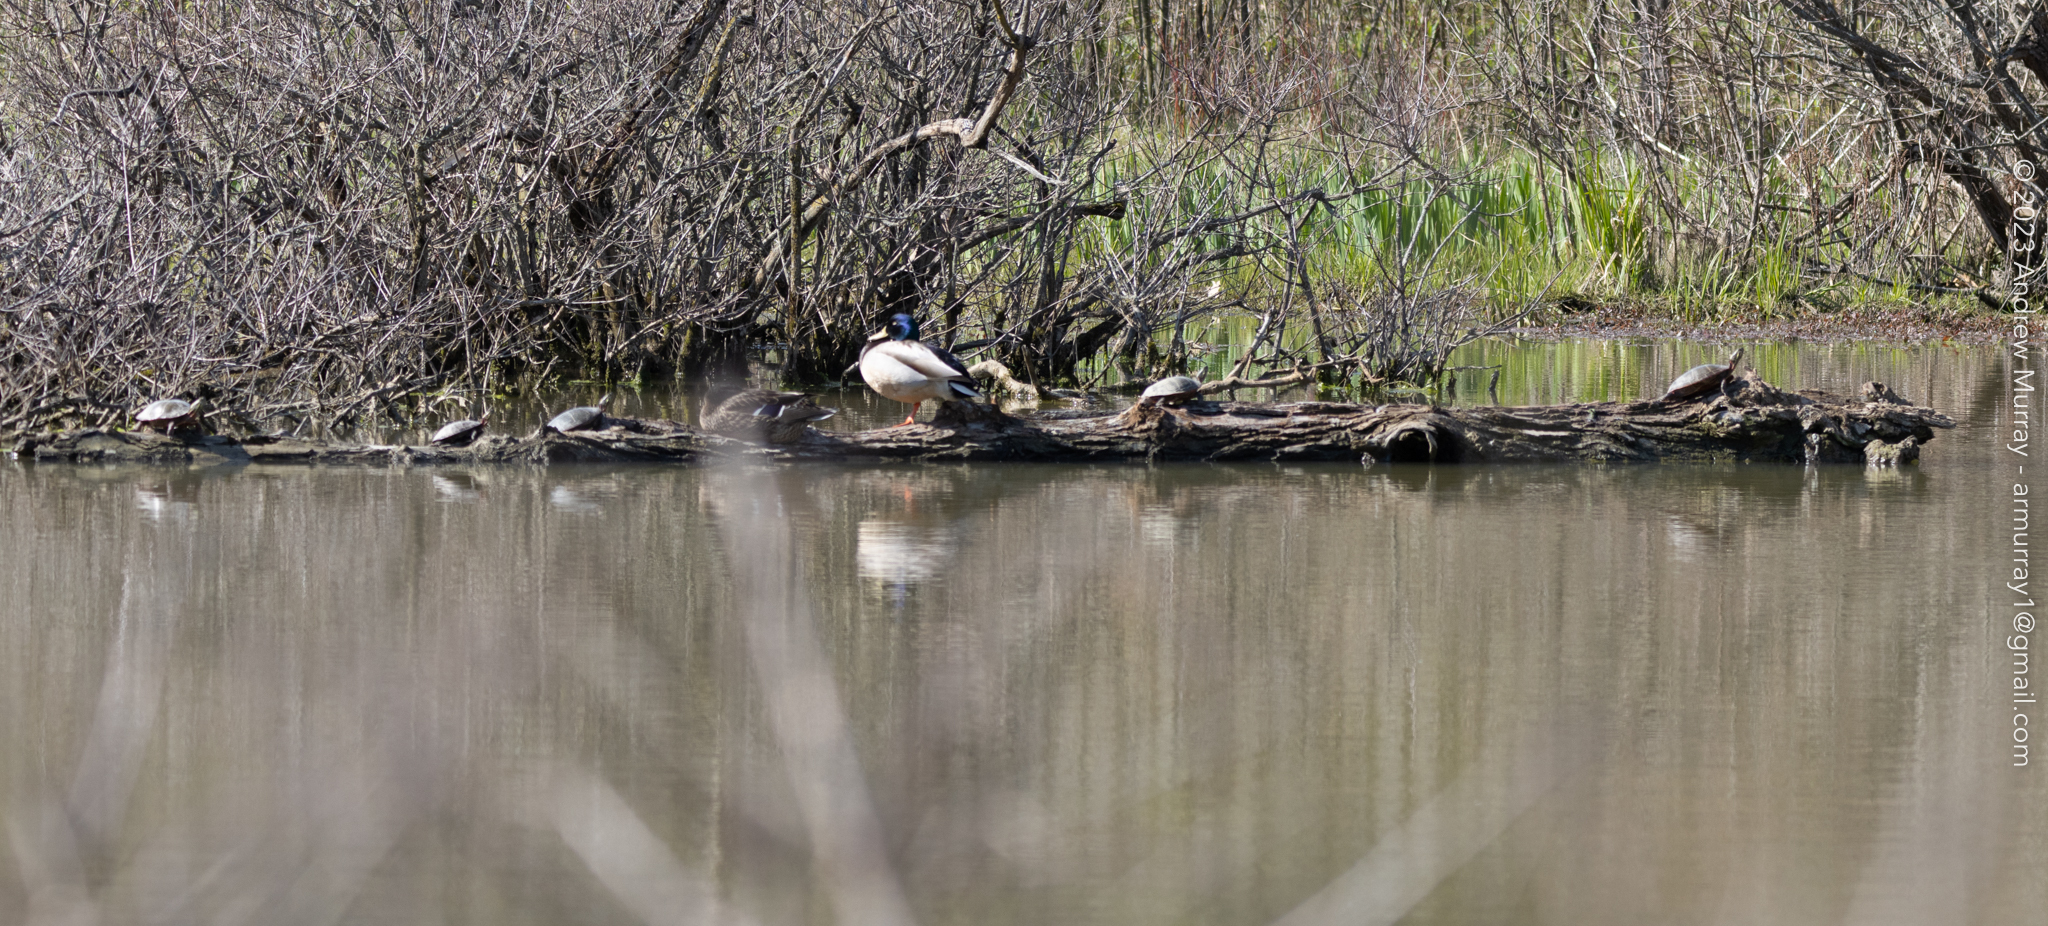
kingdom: Animalia
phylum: Chordata
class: Testudines
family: Emydidae
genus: Chrysemys
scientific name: Chrysemys picta
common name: Painted turtle
